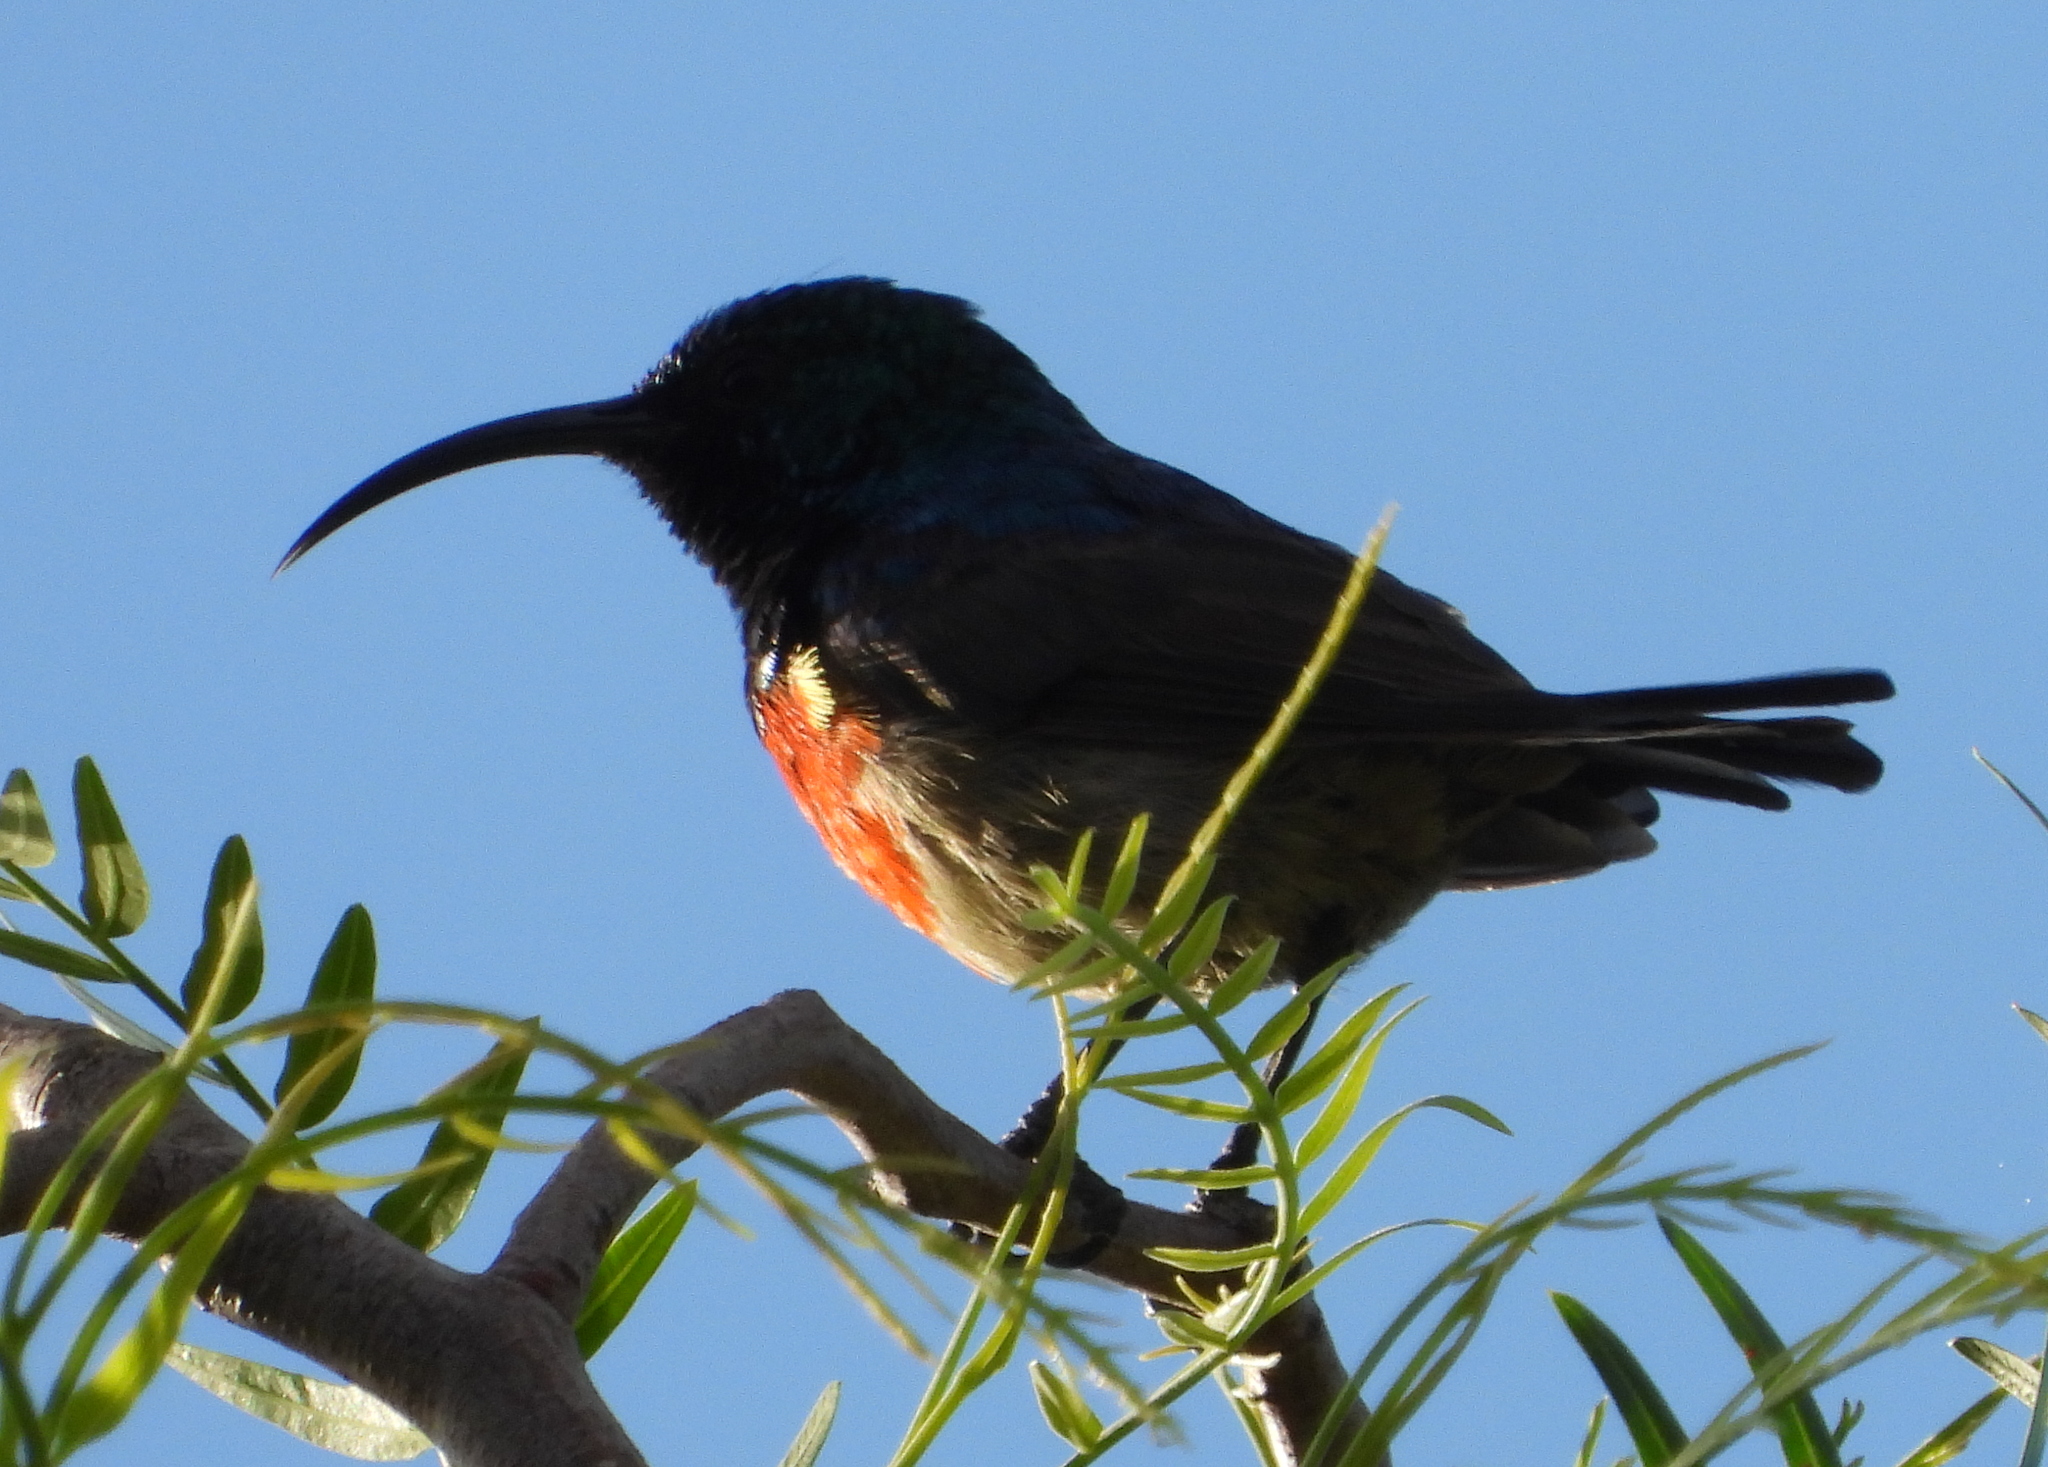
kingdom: Animalia
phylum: Chordata
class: Aves
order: Passeriformes
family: Nectariniidae
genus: Cinnyris
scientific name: Cinnyris afer
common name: Greater double-collared sunbird
